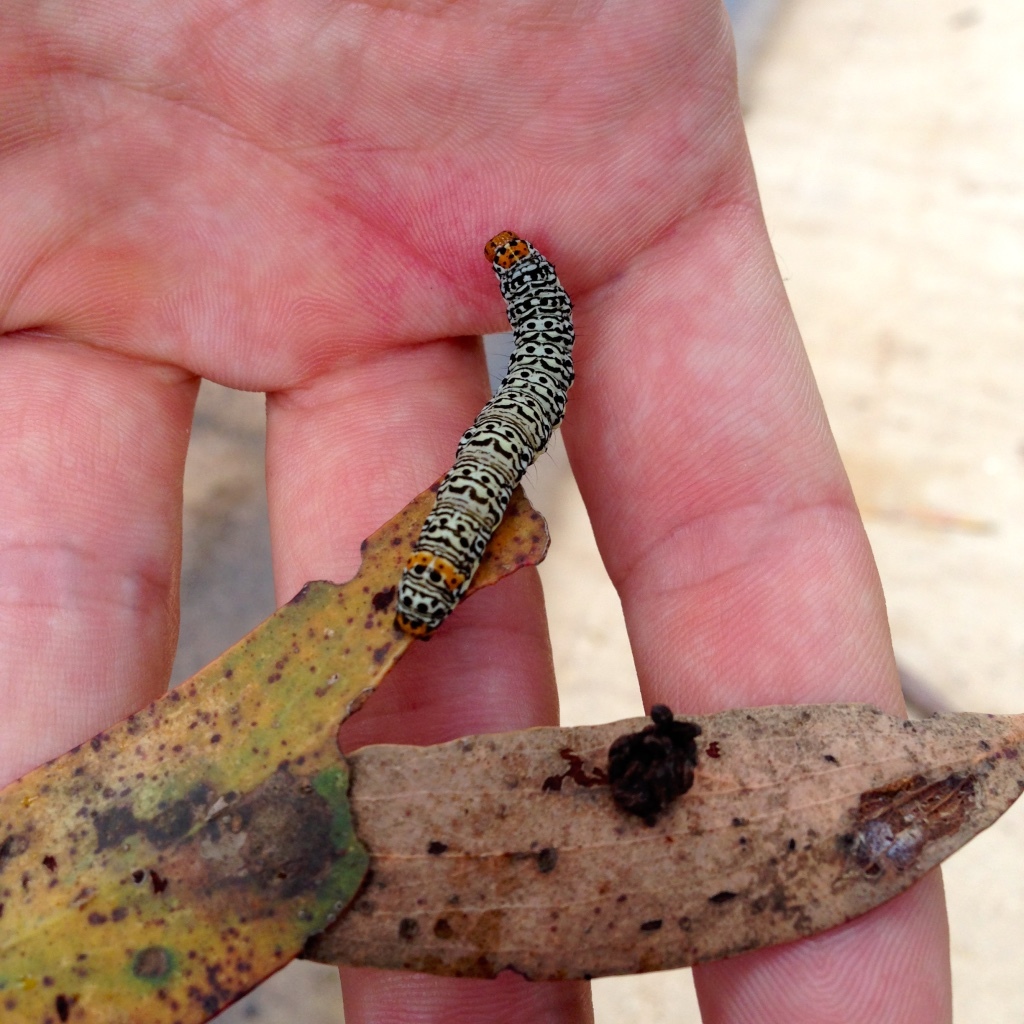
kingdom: Animalia
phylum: Arthropoda
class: Insecta
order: Lepidoptera
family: Noctuidae
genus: Phalaenoides
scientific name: Phalaenoides tristifica
